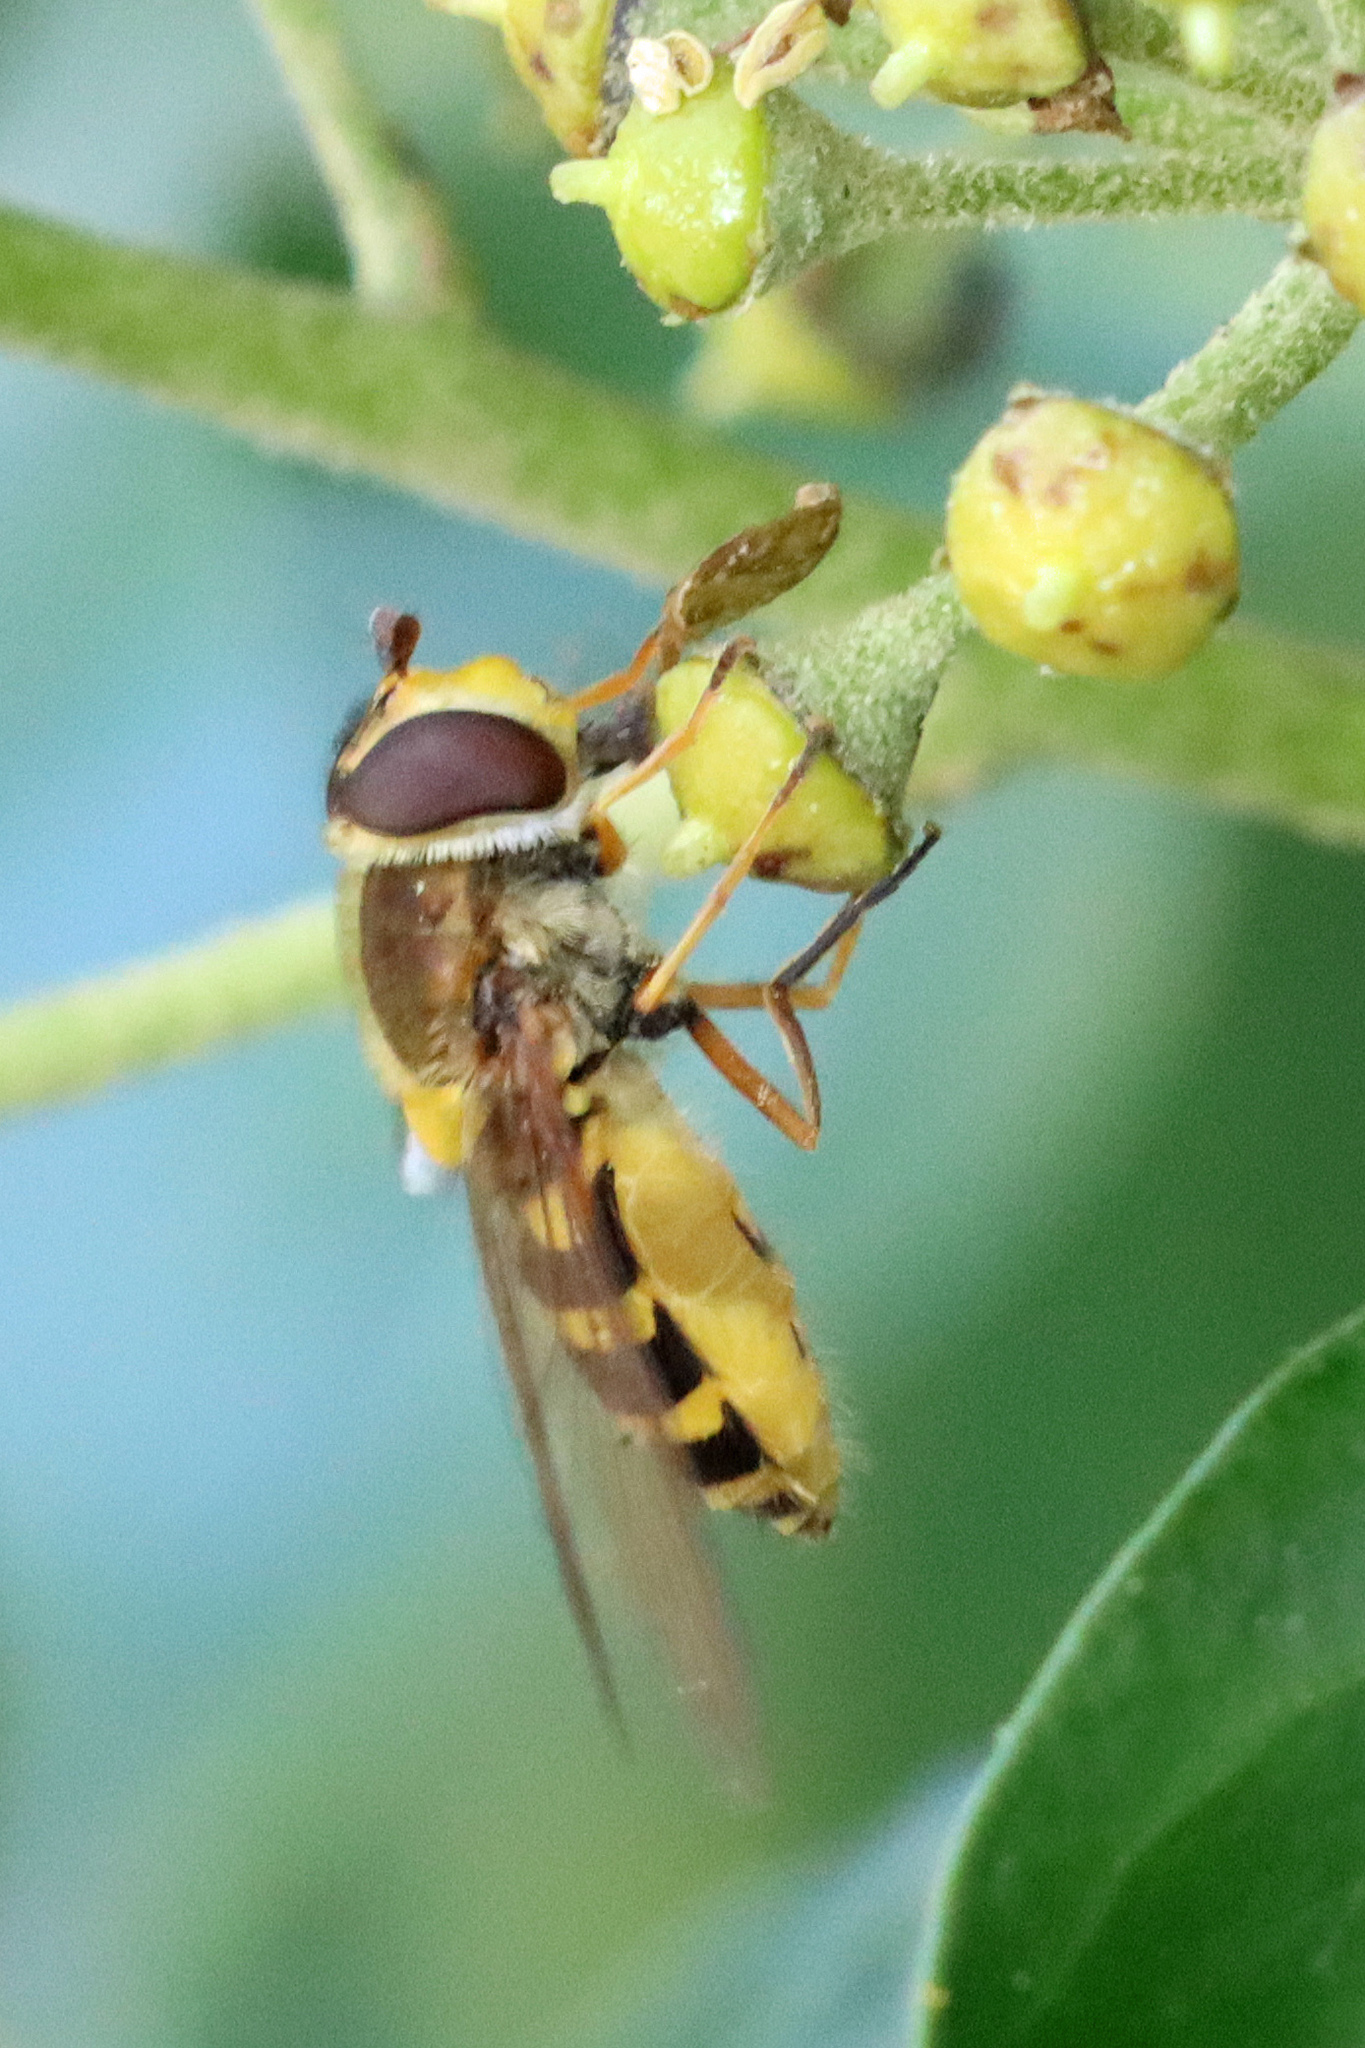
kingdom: Animalia
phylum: Arthropoda
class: Insecta
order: Diptera
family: Syrphidae
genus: Syrphus
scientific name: Syrphus ribesii
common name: Common flower fly
